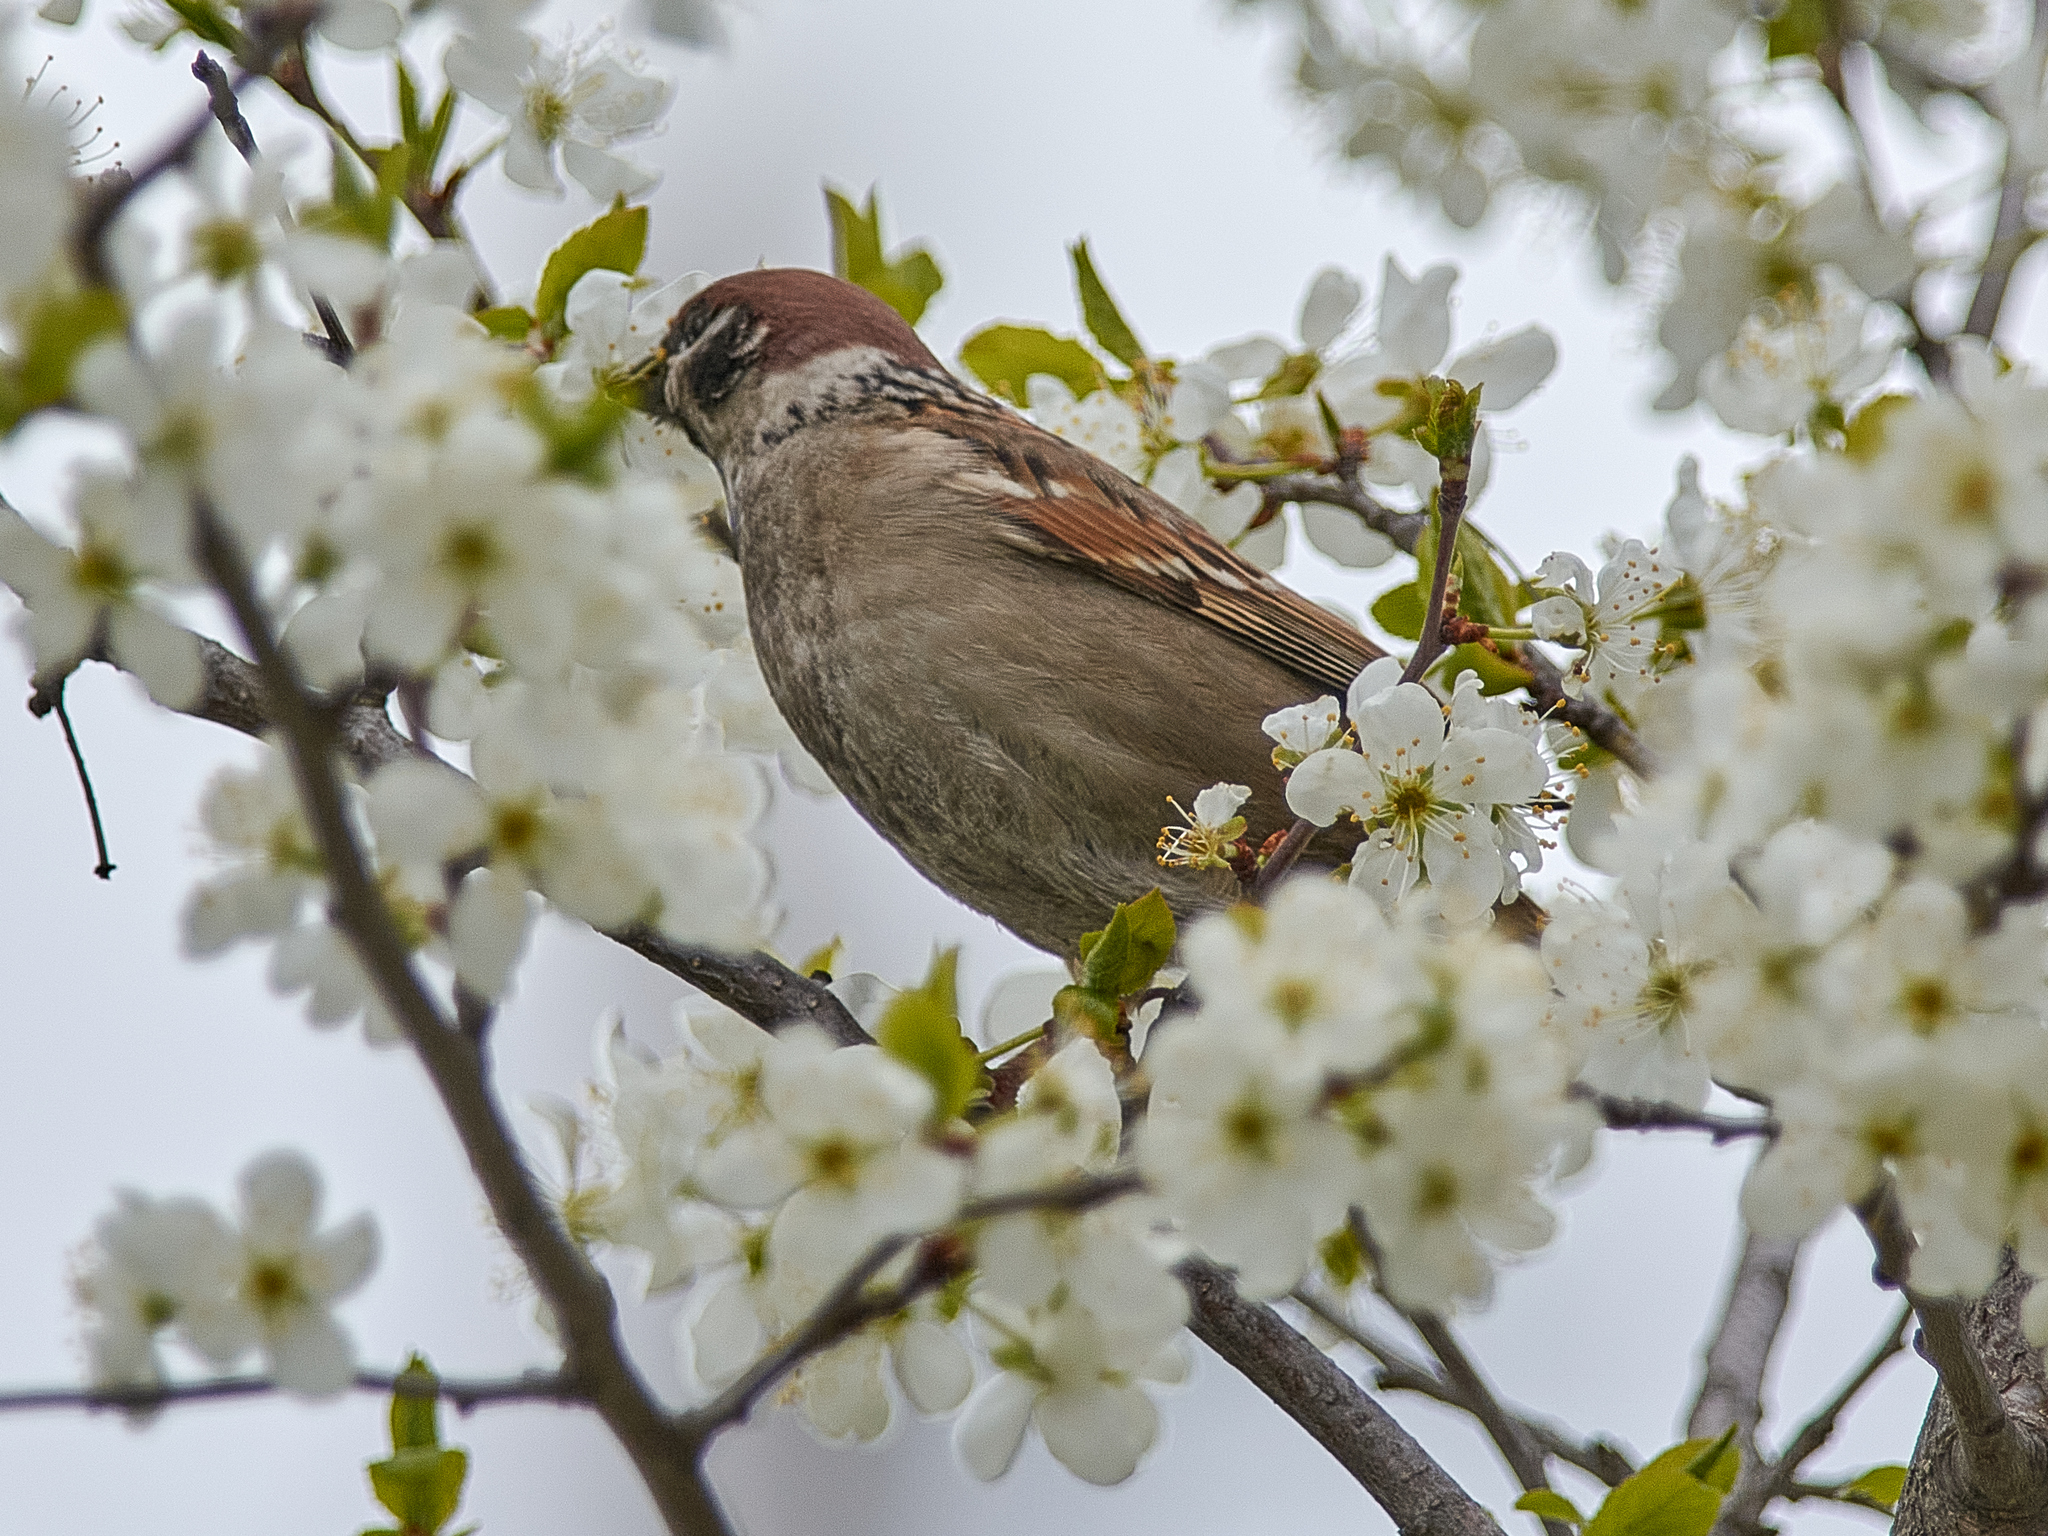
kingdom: Animalia
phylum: Chordata
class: Aves
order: Passeriformes
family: Passeridae
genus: Passer
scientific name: Passer montanus
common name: Eurasian tree sparrow
